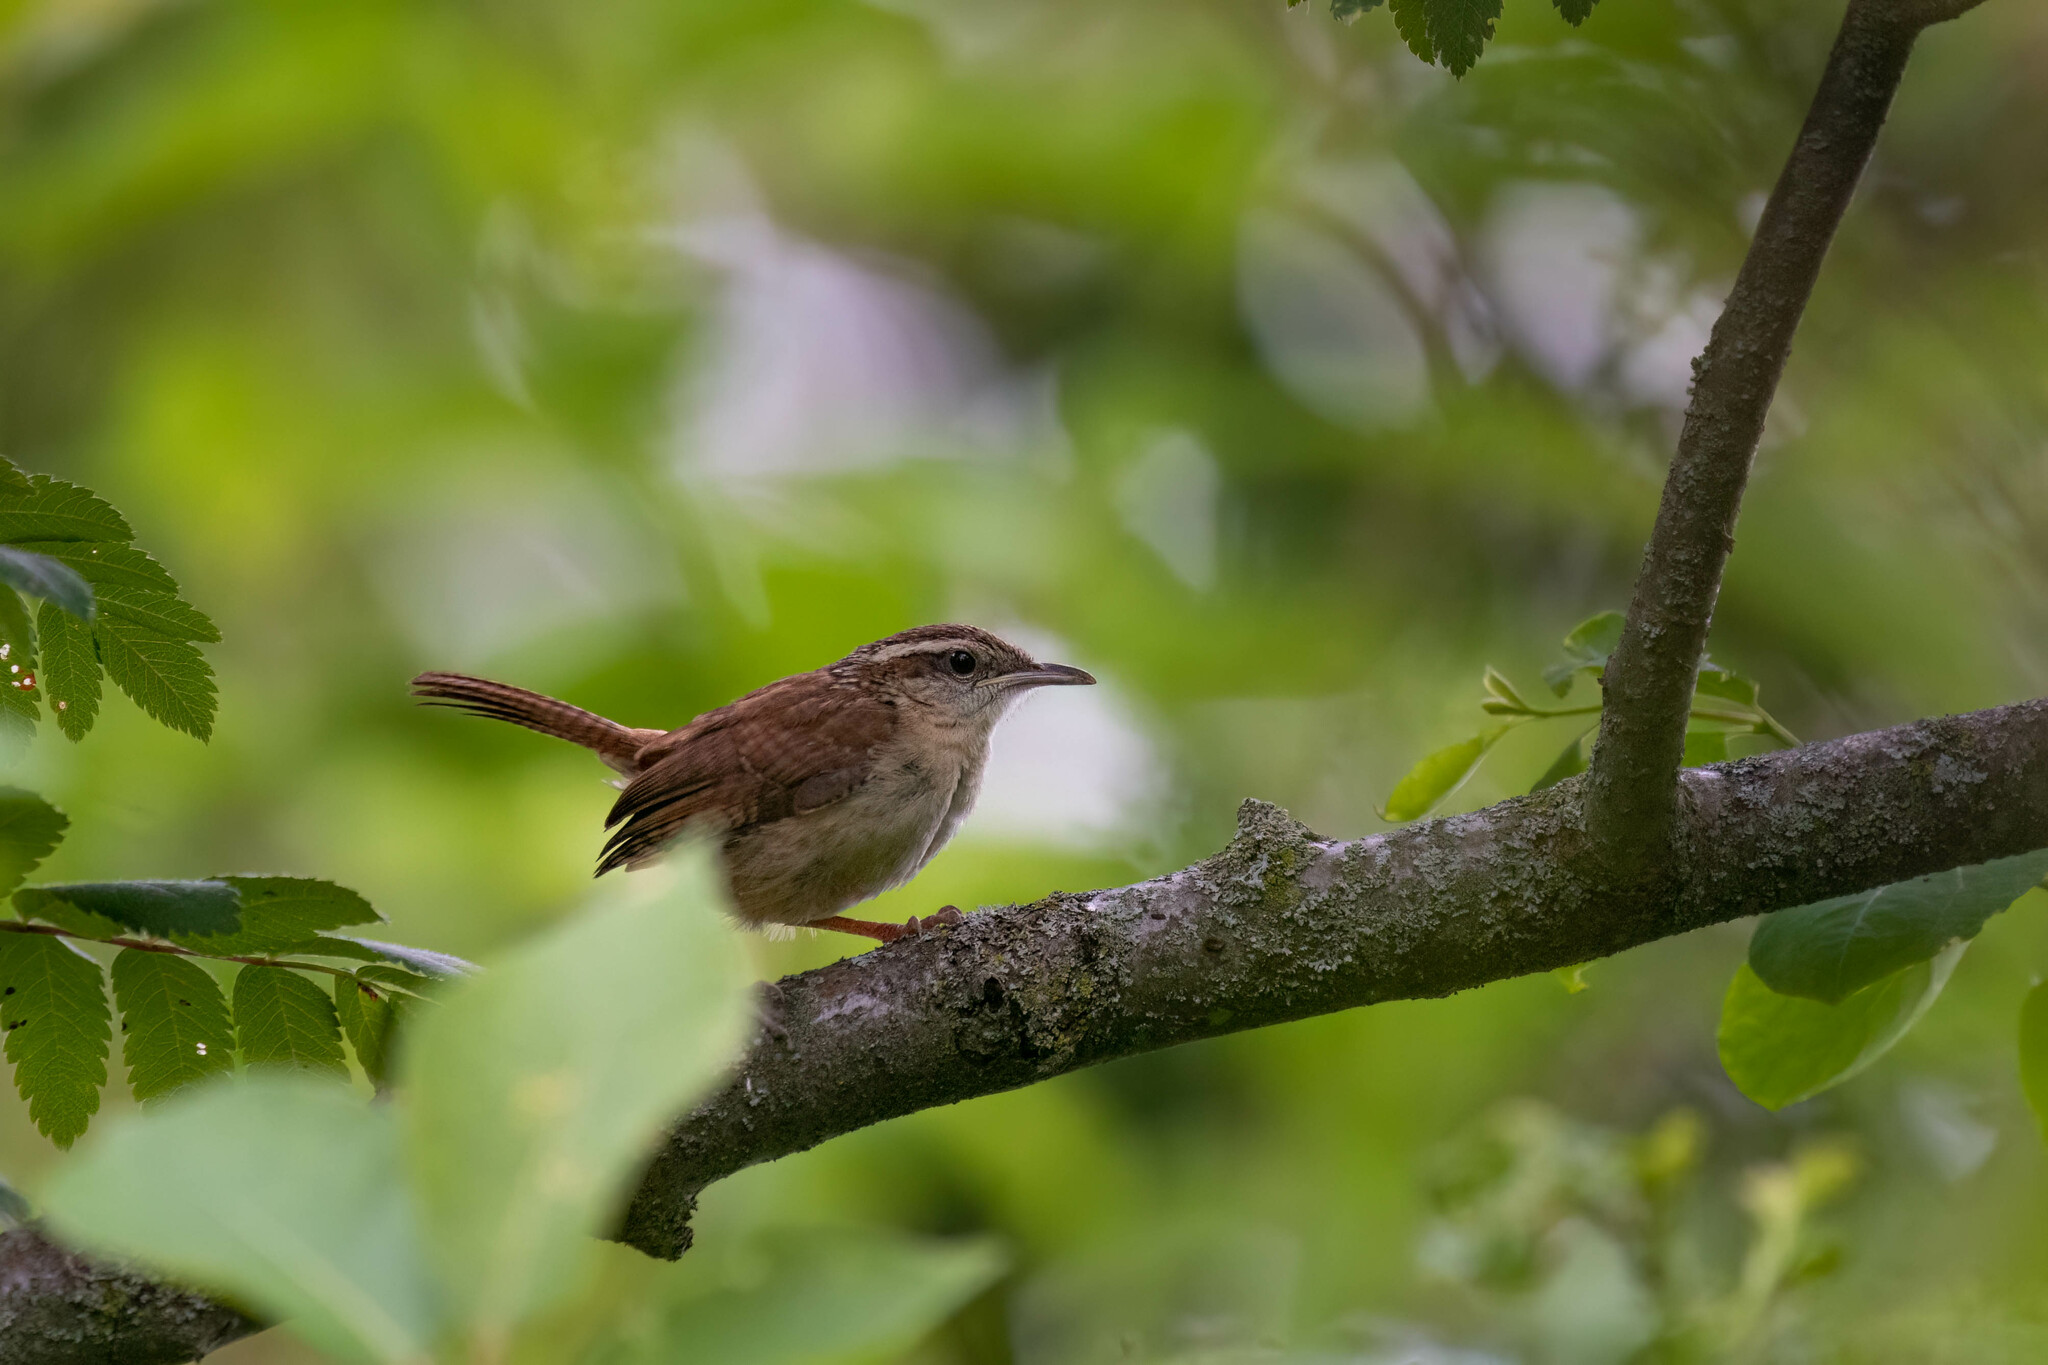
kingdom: Animalia
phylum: Chordata
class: Aves
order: Passeriformes
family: Troglodytidae
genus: Thryothorus
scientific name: Thryothorus ludovicianus
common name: Carolina wren
